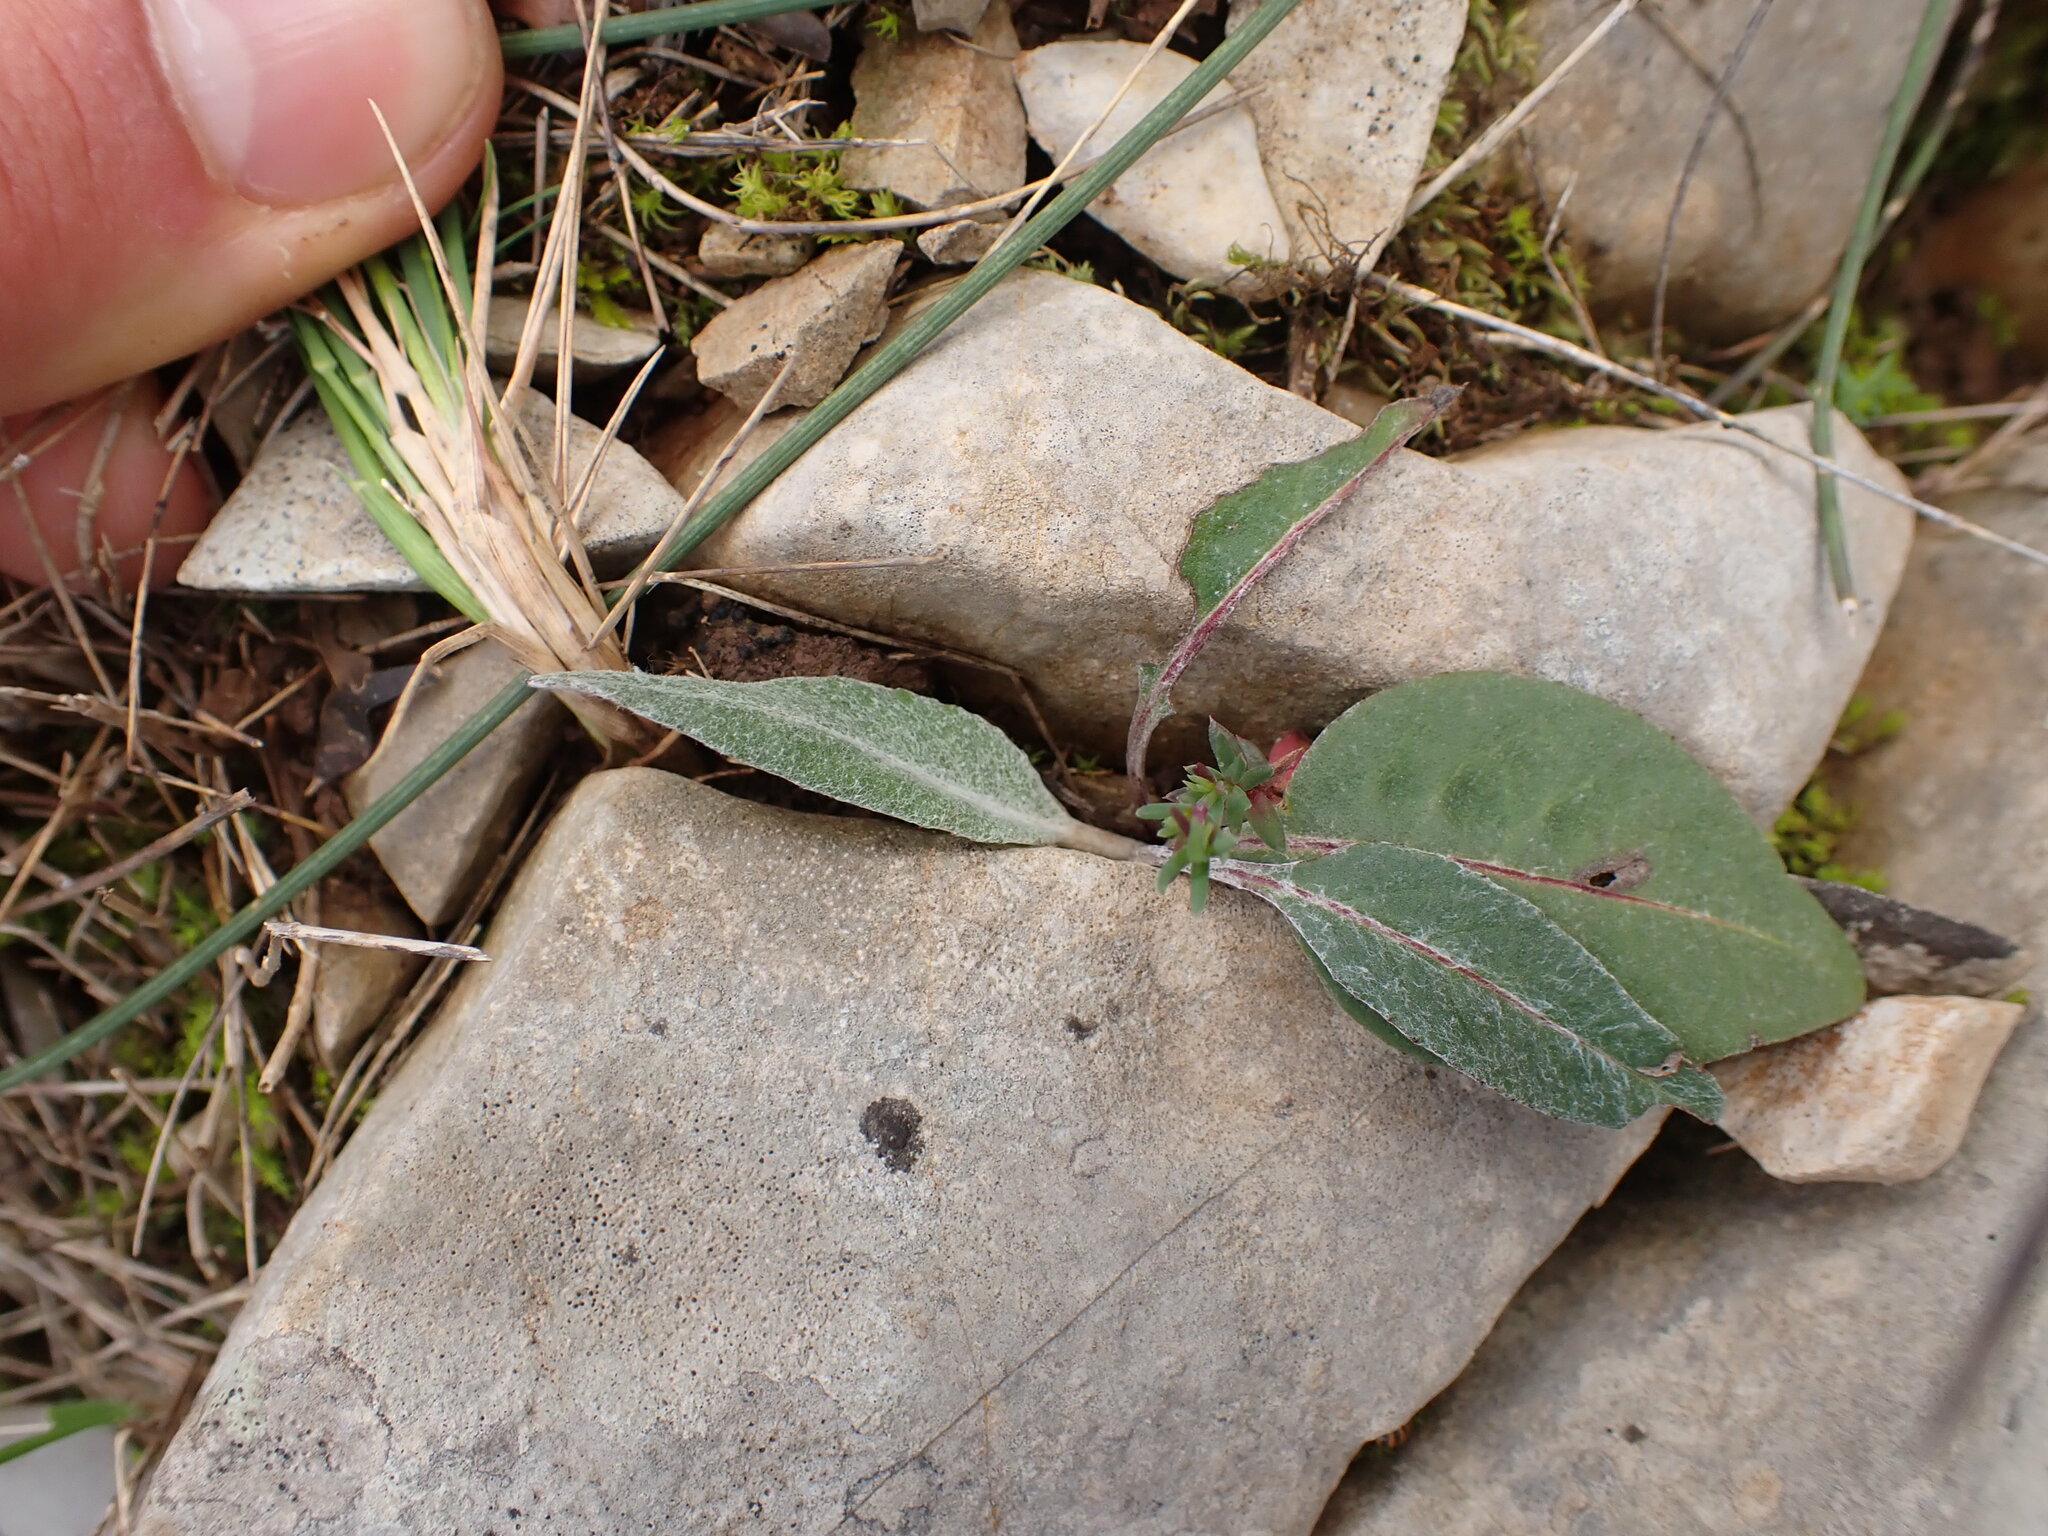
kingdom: Plantae
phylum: Tracheophyta
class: Magnoliopsida
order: Asterales
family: Asteraceae
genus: Leuzea
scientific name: Leuzea conifera
